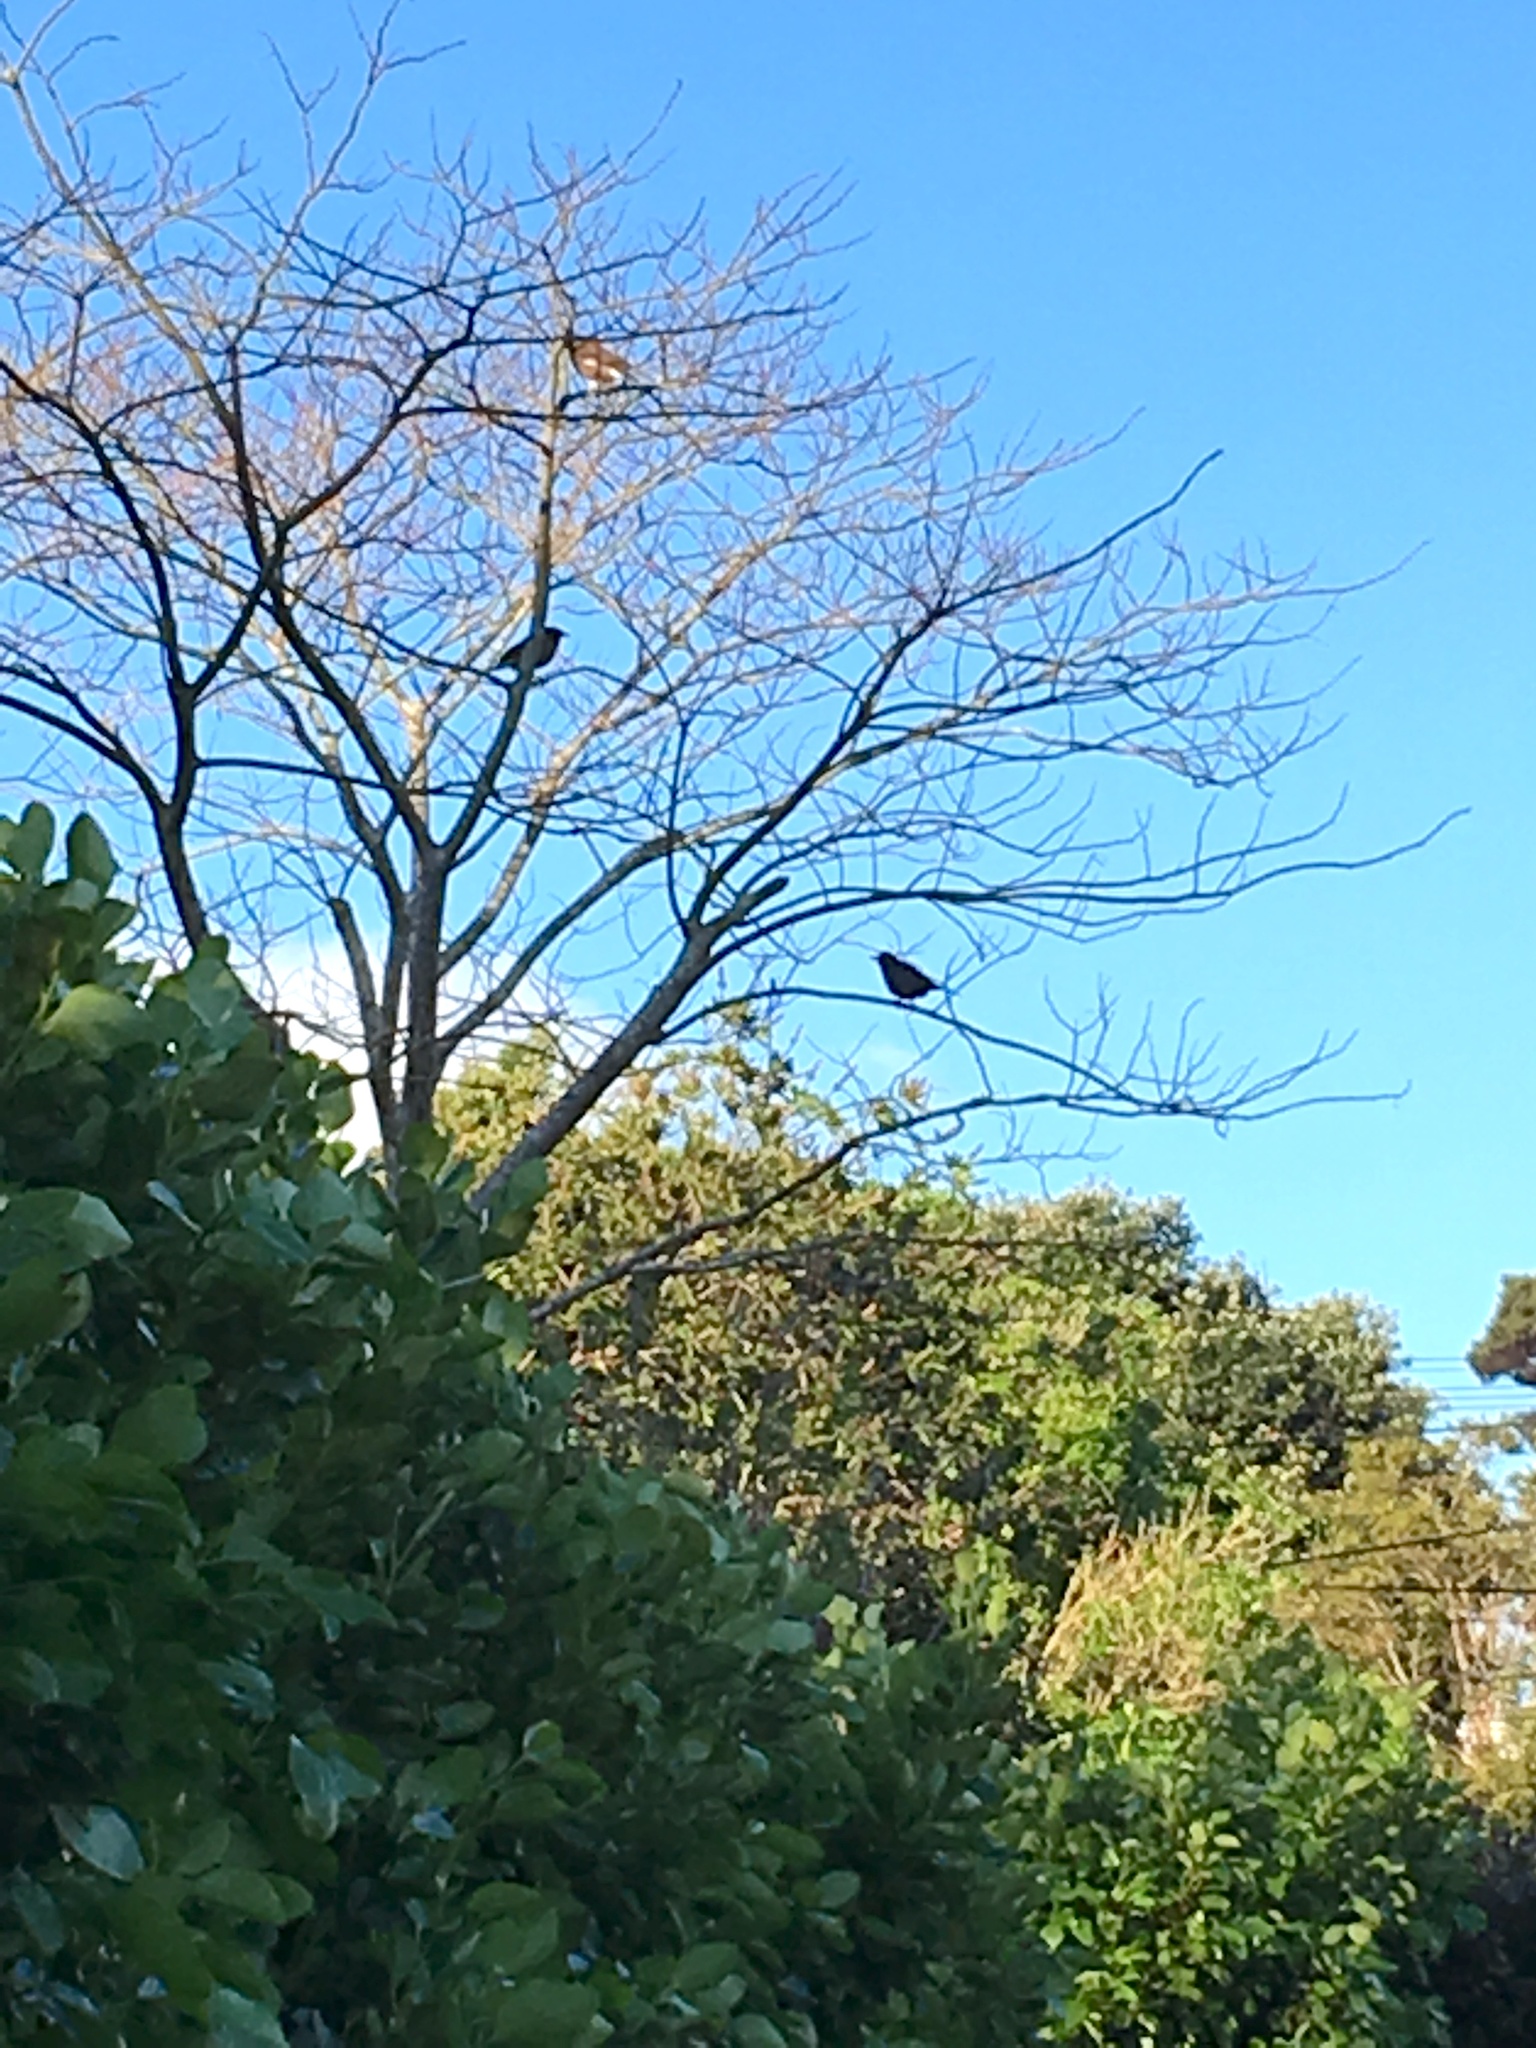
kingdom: Animalia
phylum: Chordata
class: Aves
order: Passeriformes
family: Sturnidae
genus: Acridotheres
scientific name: Acridotheres tristis
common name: Common myna
